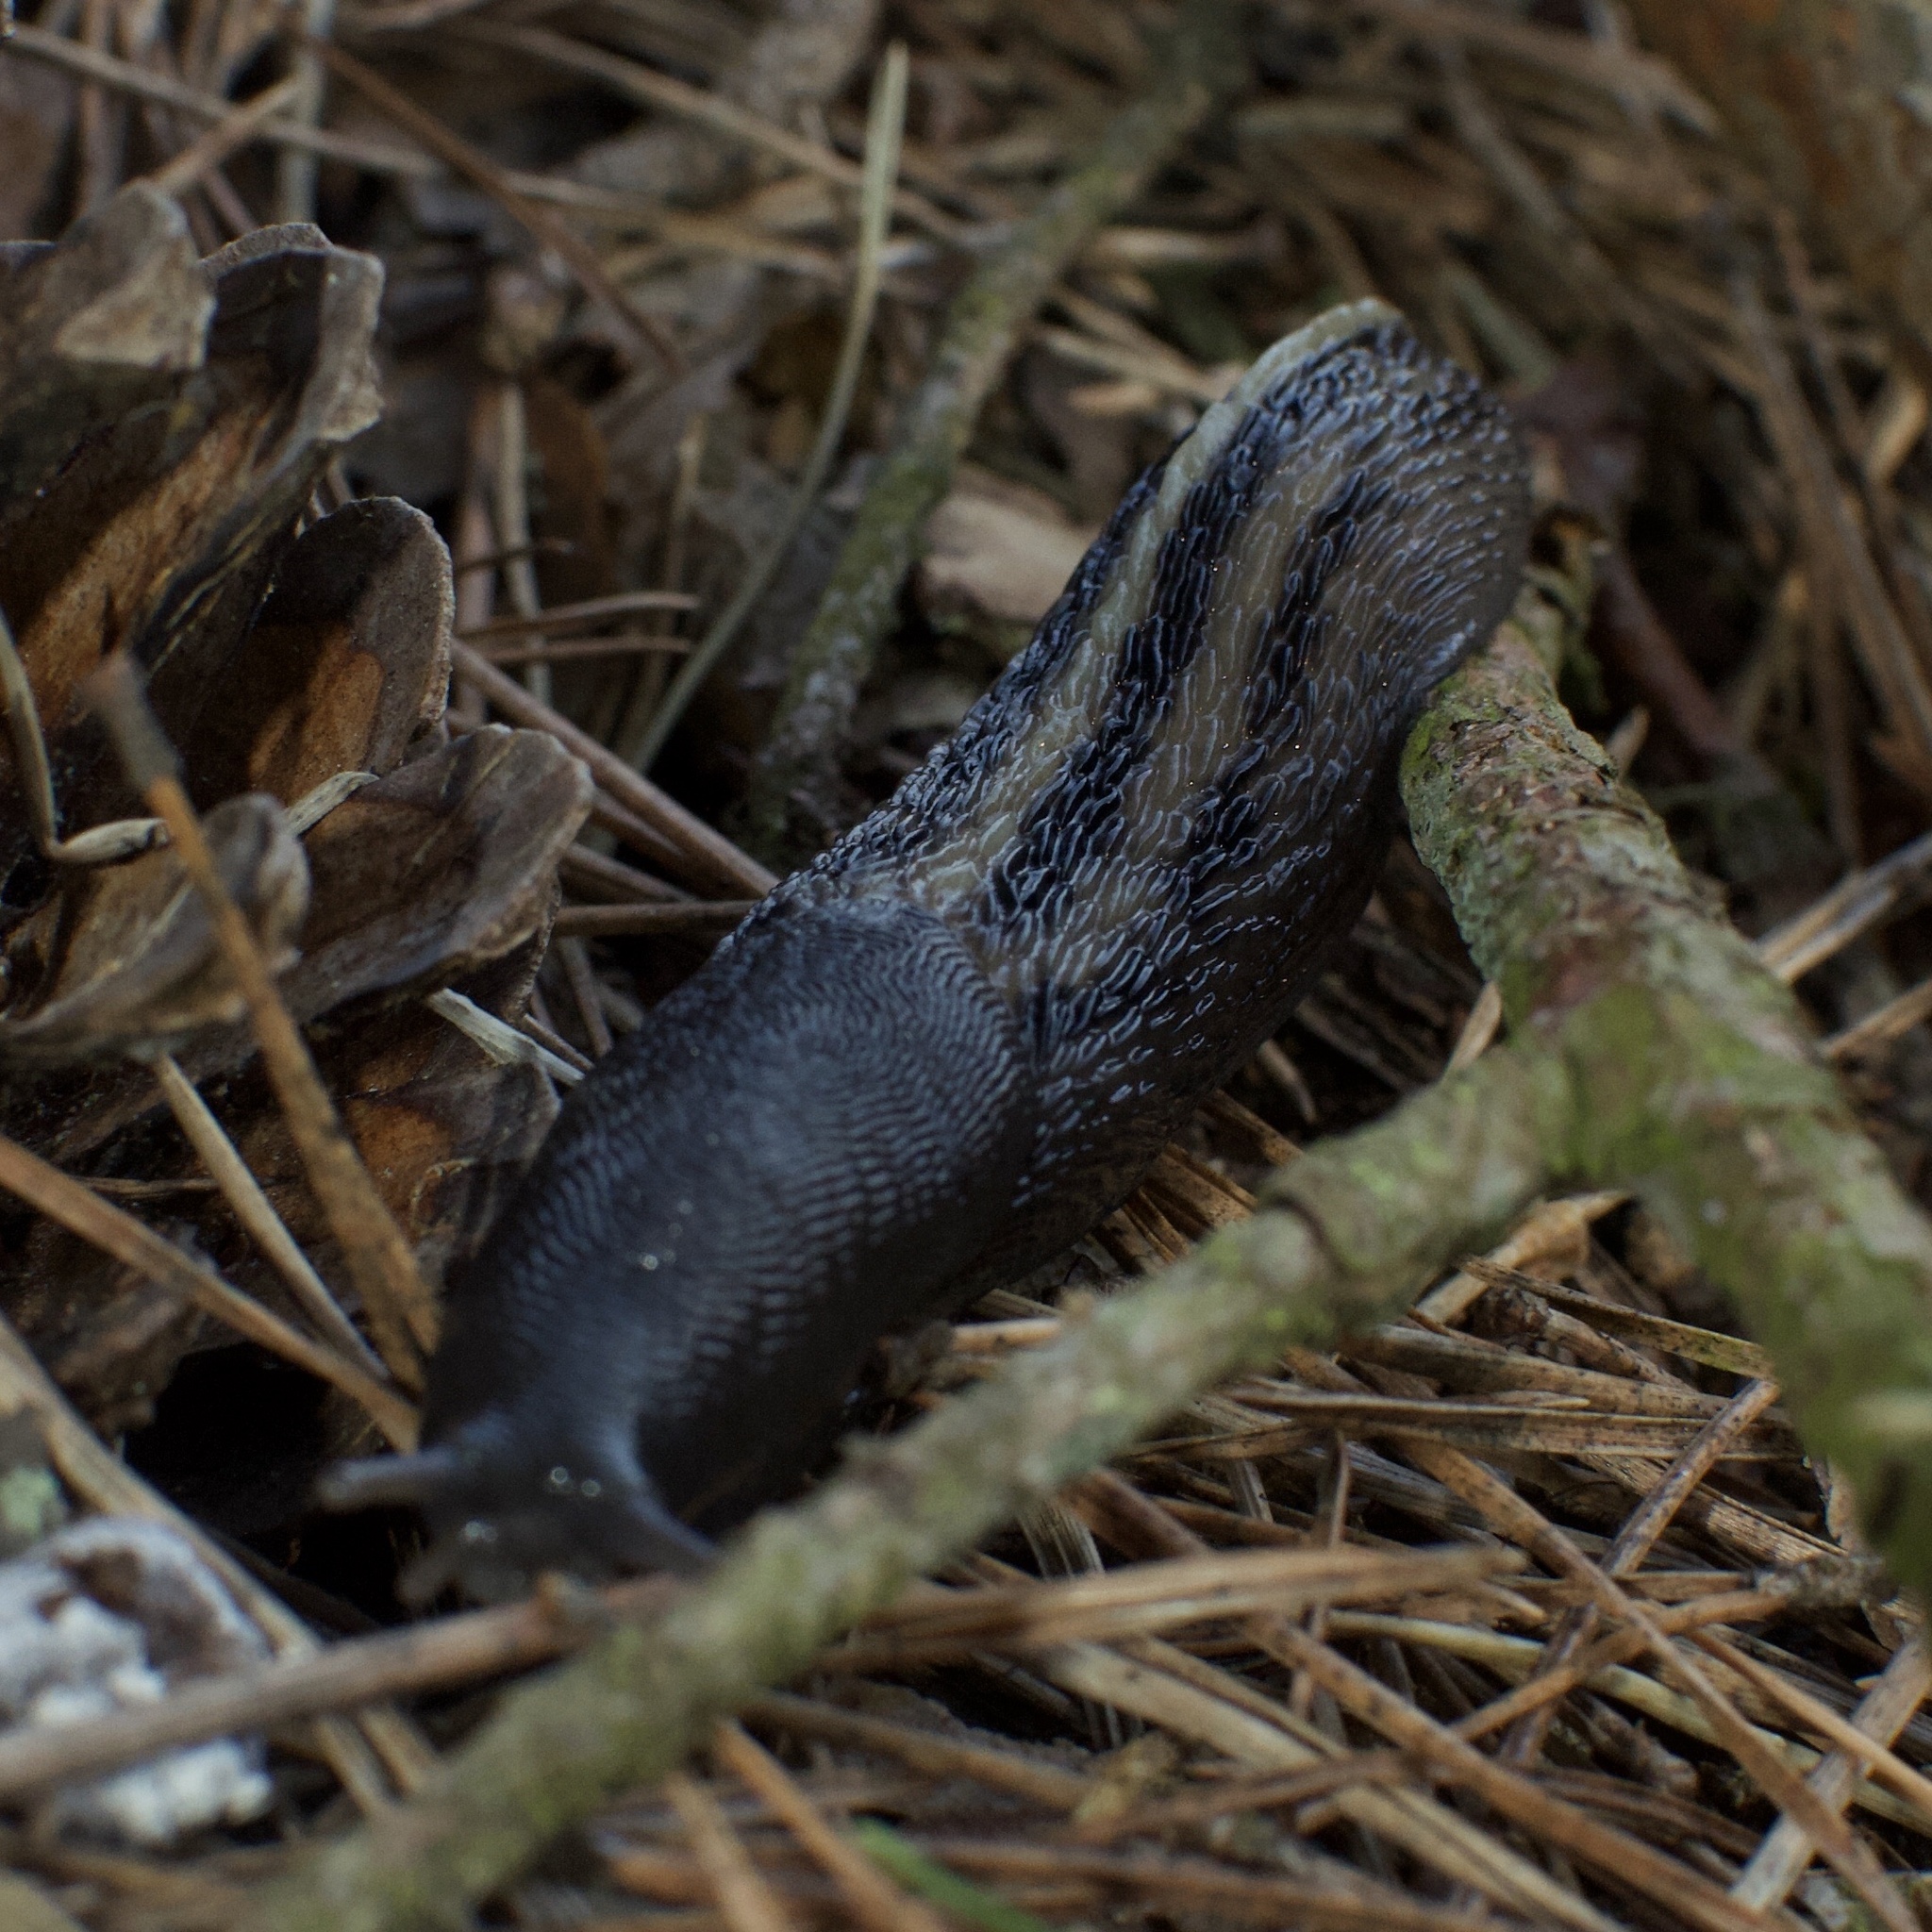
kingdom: Animalia
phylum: Mollusca
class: Gastropoda
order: Stylommatophora
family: Limacidae
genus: Limax
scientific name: Limax cinereoniger
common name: Ash-black slug
